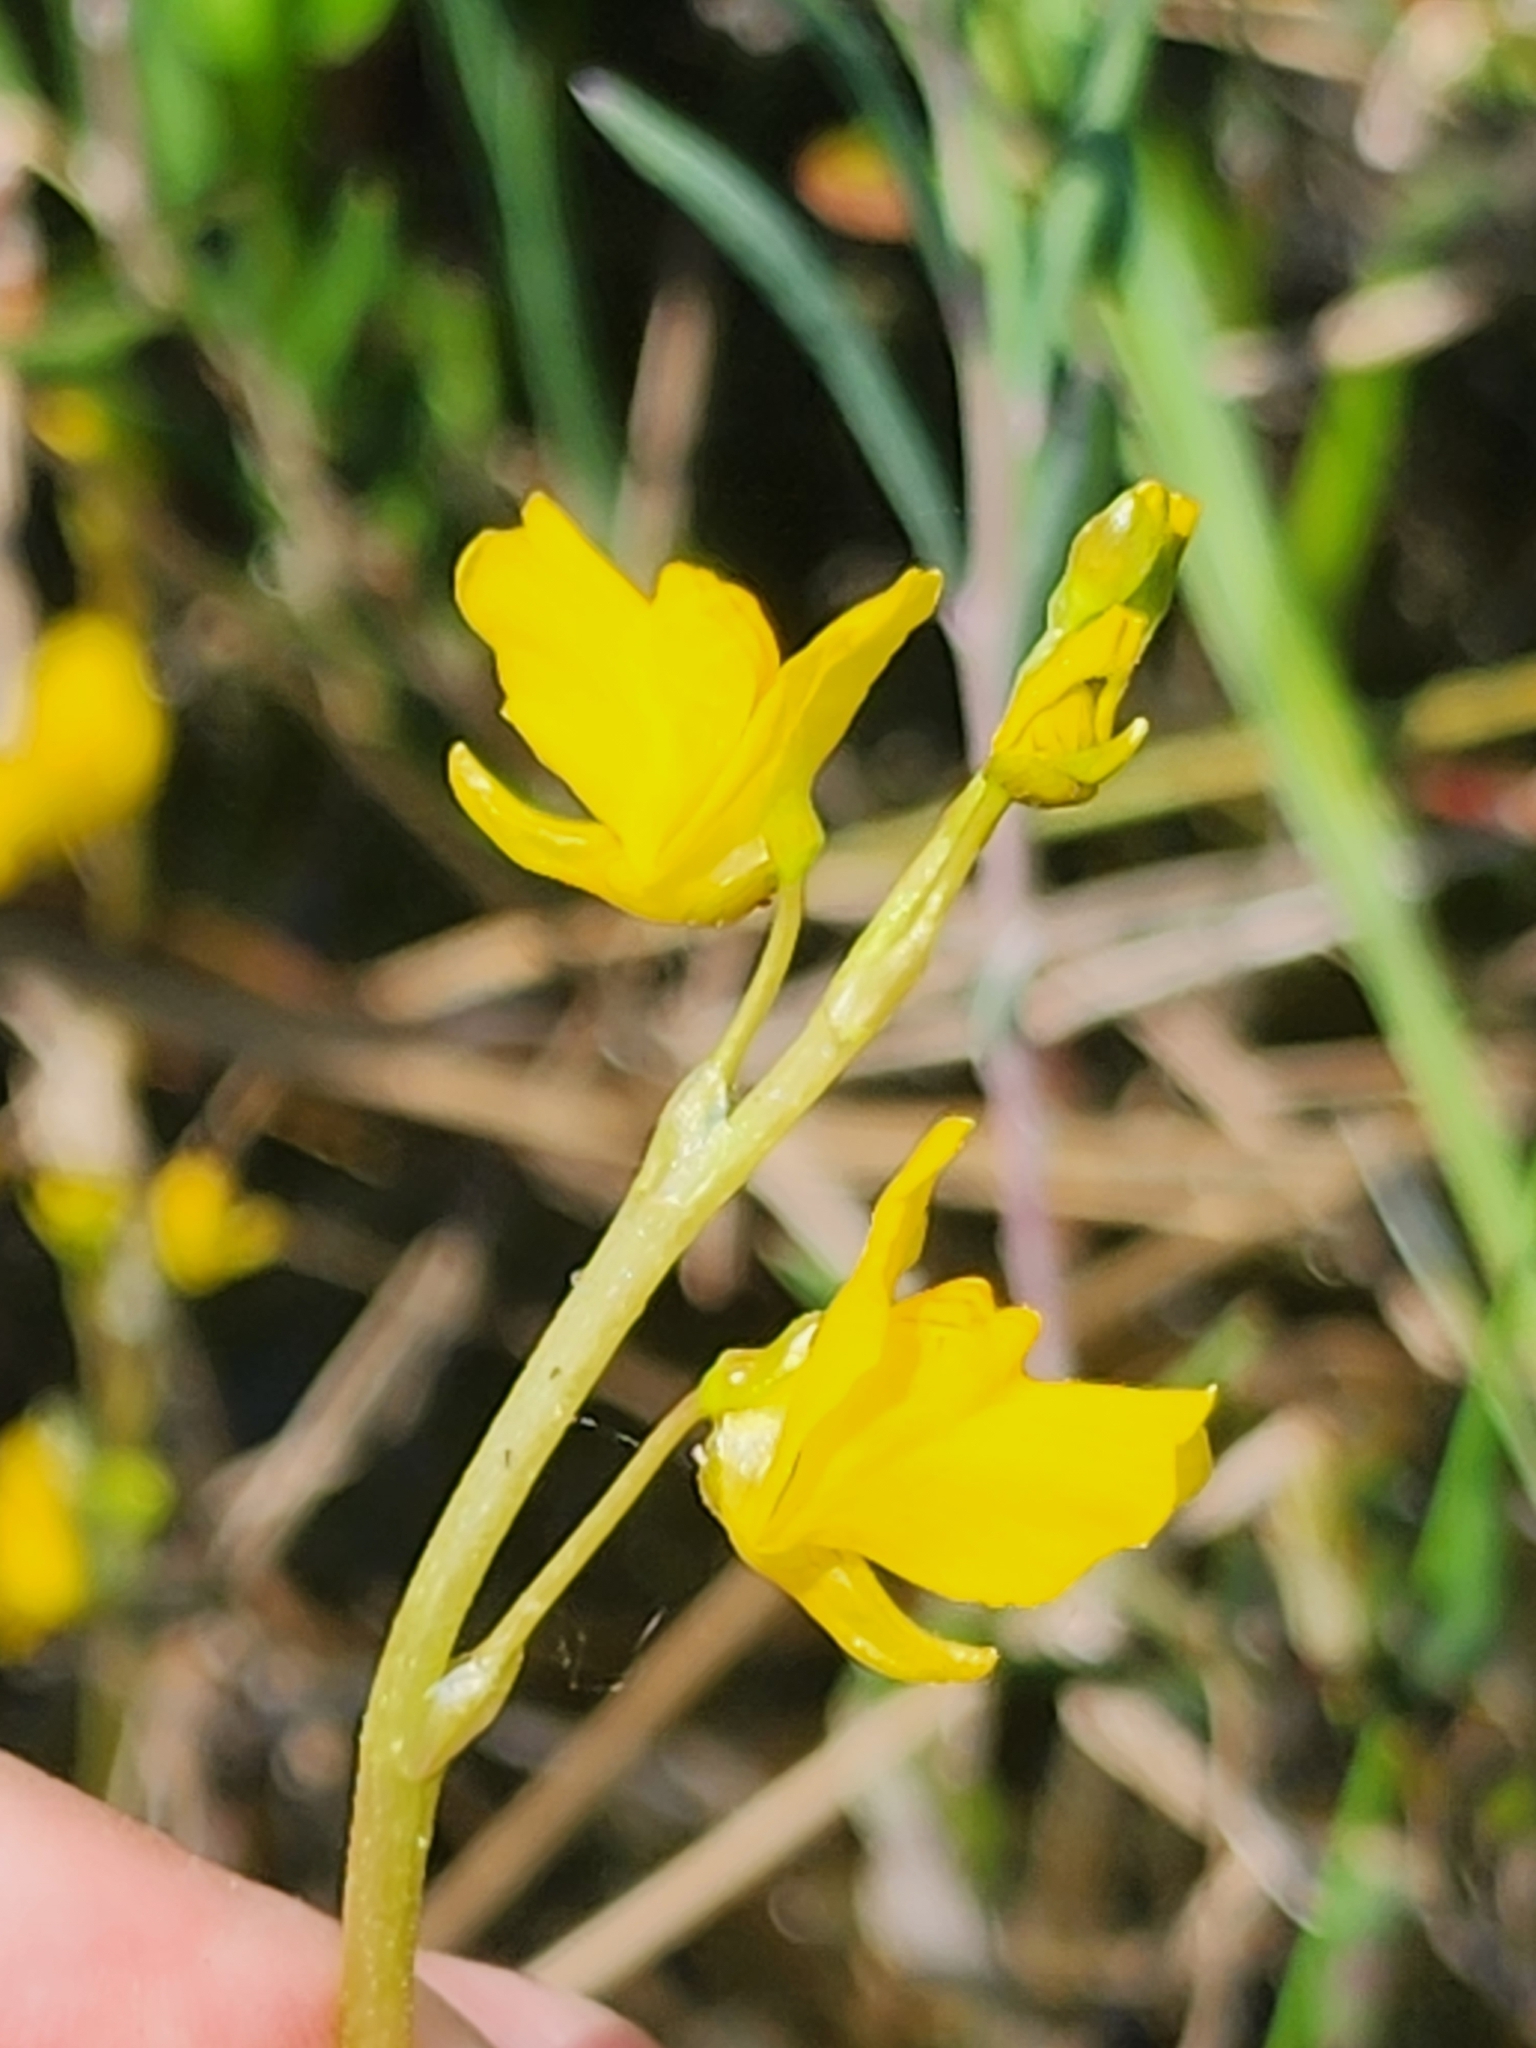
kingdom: Plantae
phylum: Tracheophyta
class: Magnoliopsida
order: Lamiales
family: Lentibulariaceae
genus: Utricularia
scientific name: Utricularia macrorhiza
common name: Common bladderwort
